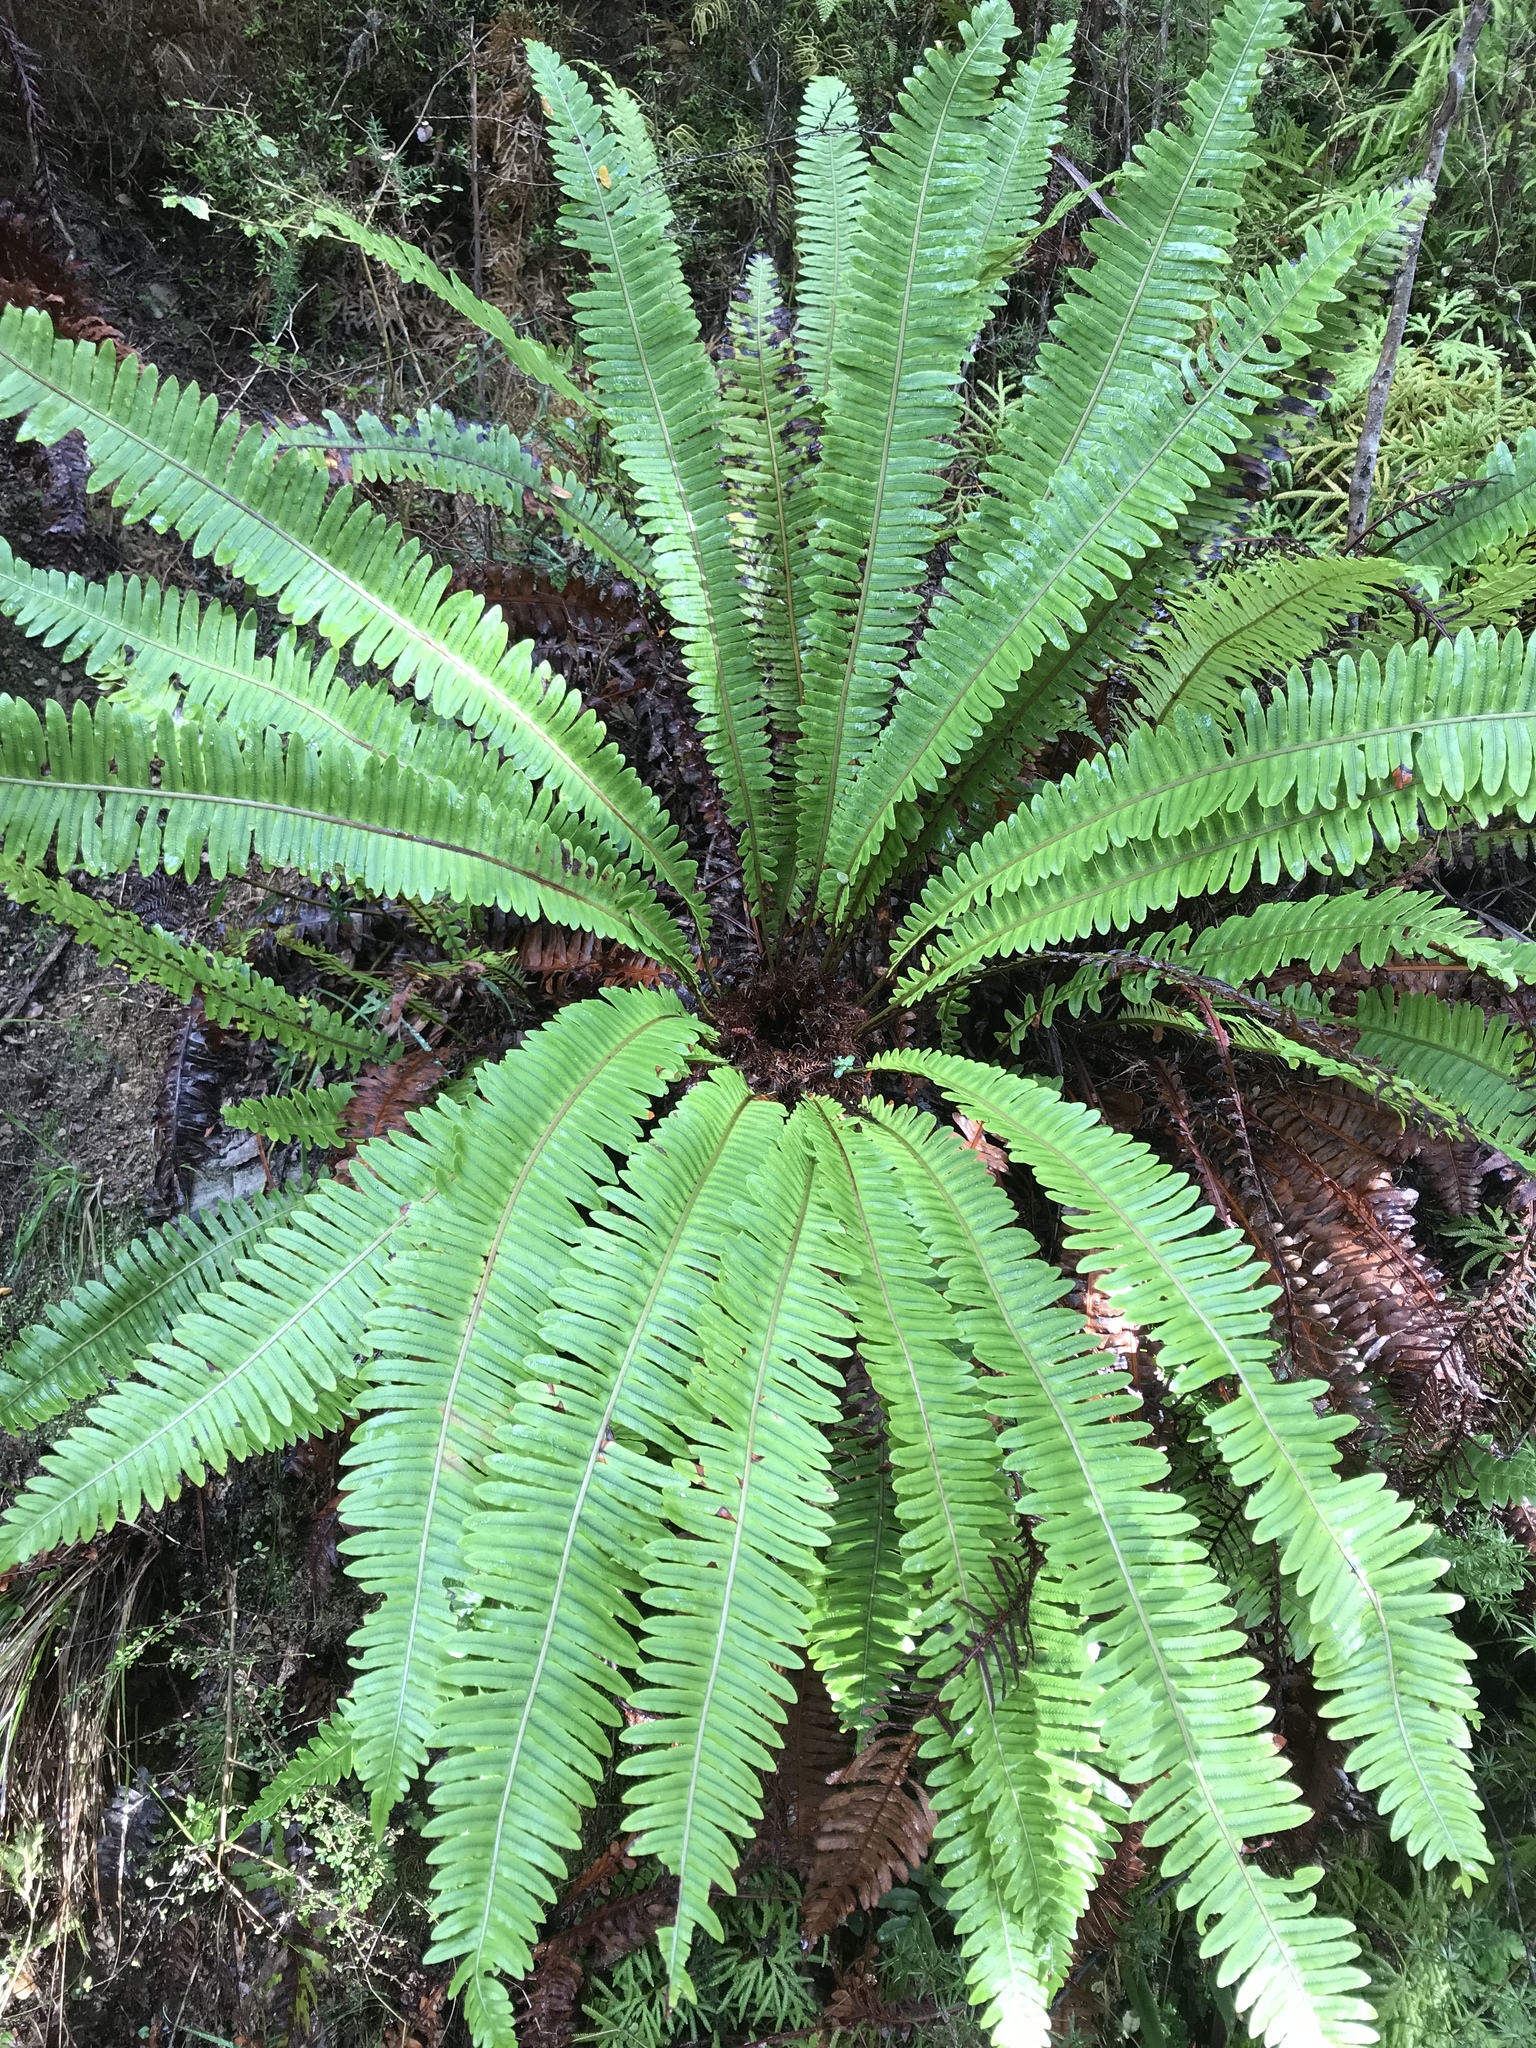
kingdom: Plantae
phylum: Tracheophyta
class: Polypodiopsida
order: Polypodiales
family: Blechnaceae
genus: Lomaria
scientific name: Lomaria discolor
